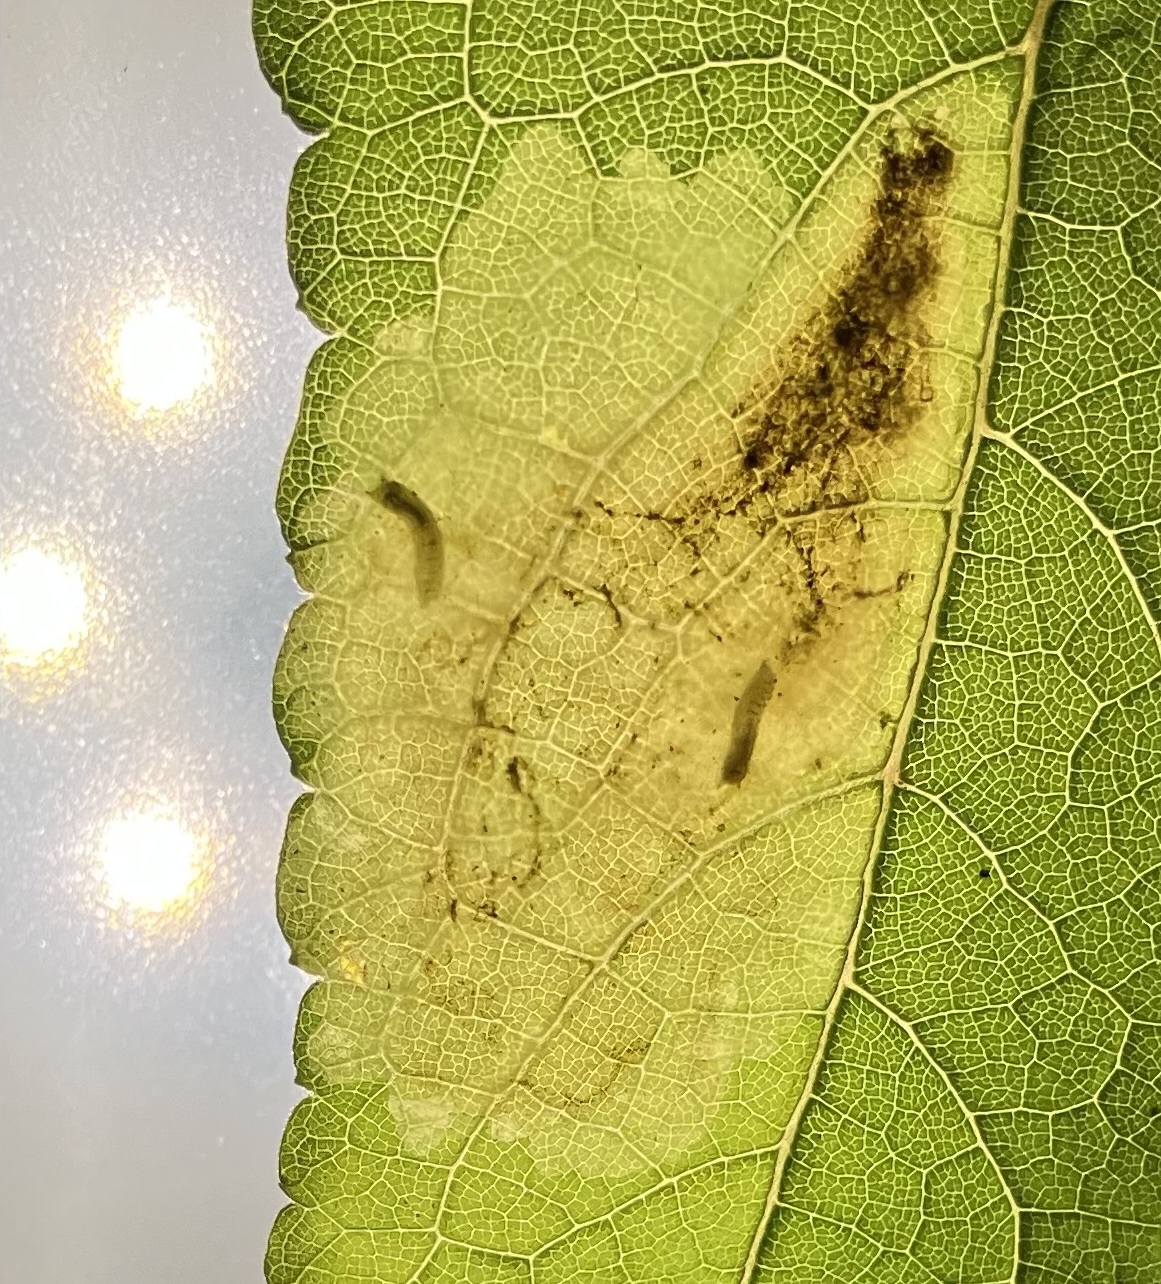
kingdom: Animalia
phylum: Arthropoda
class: Insecta
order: Diptera
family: Agromyzidae
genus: Calycomyza
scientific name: Calycomyza flavinotum
